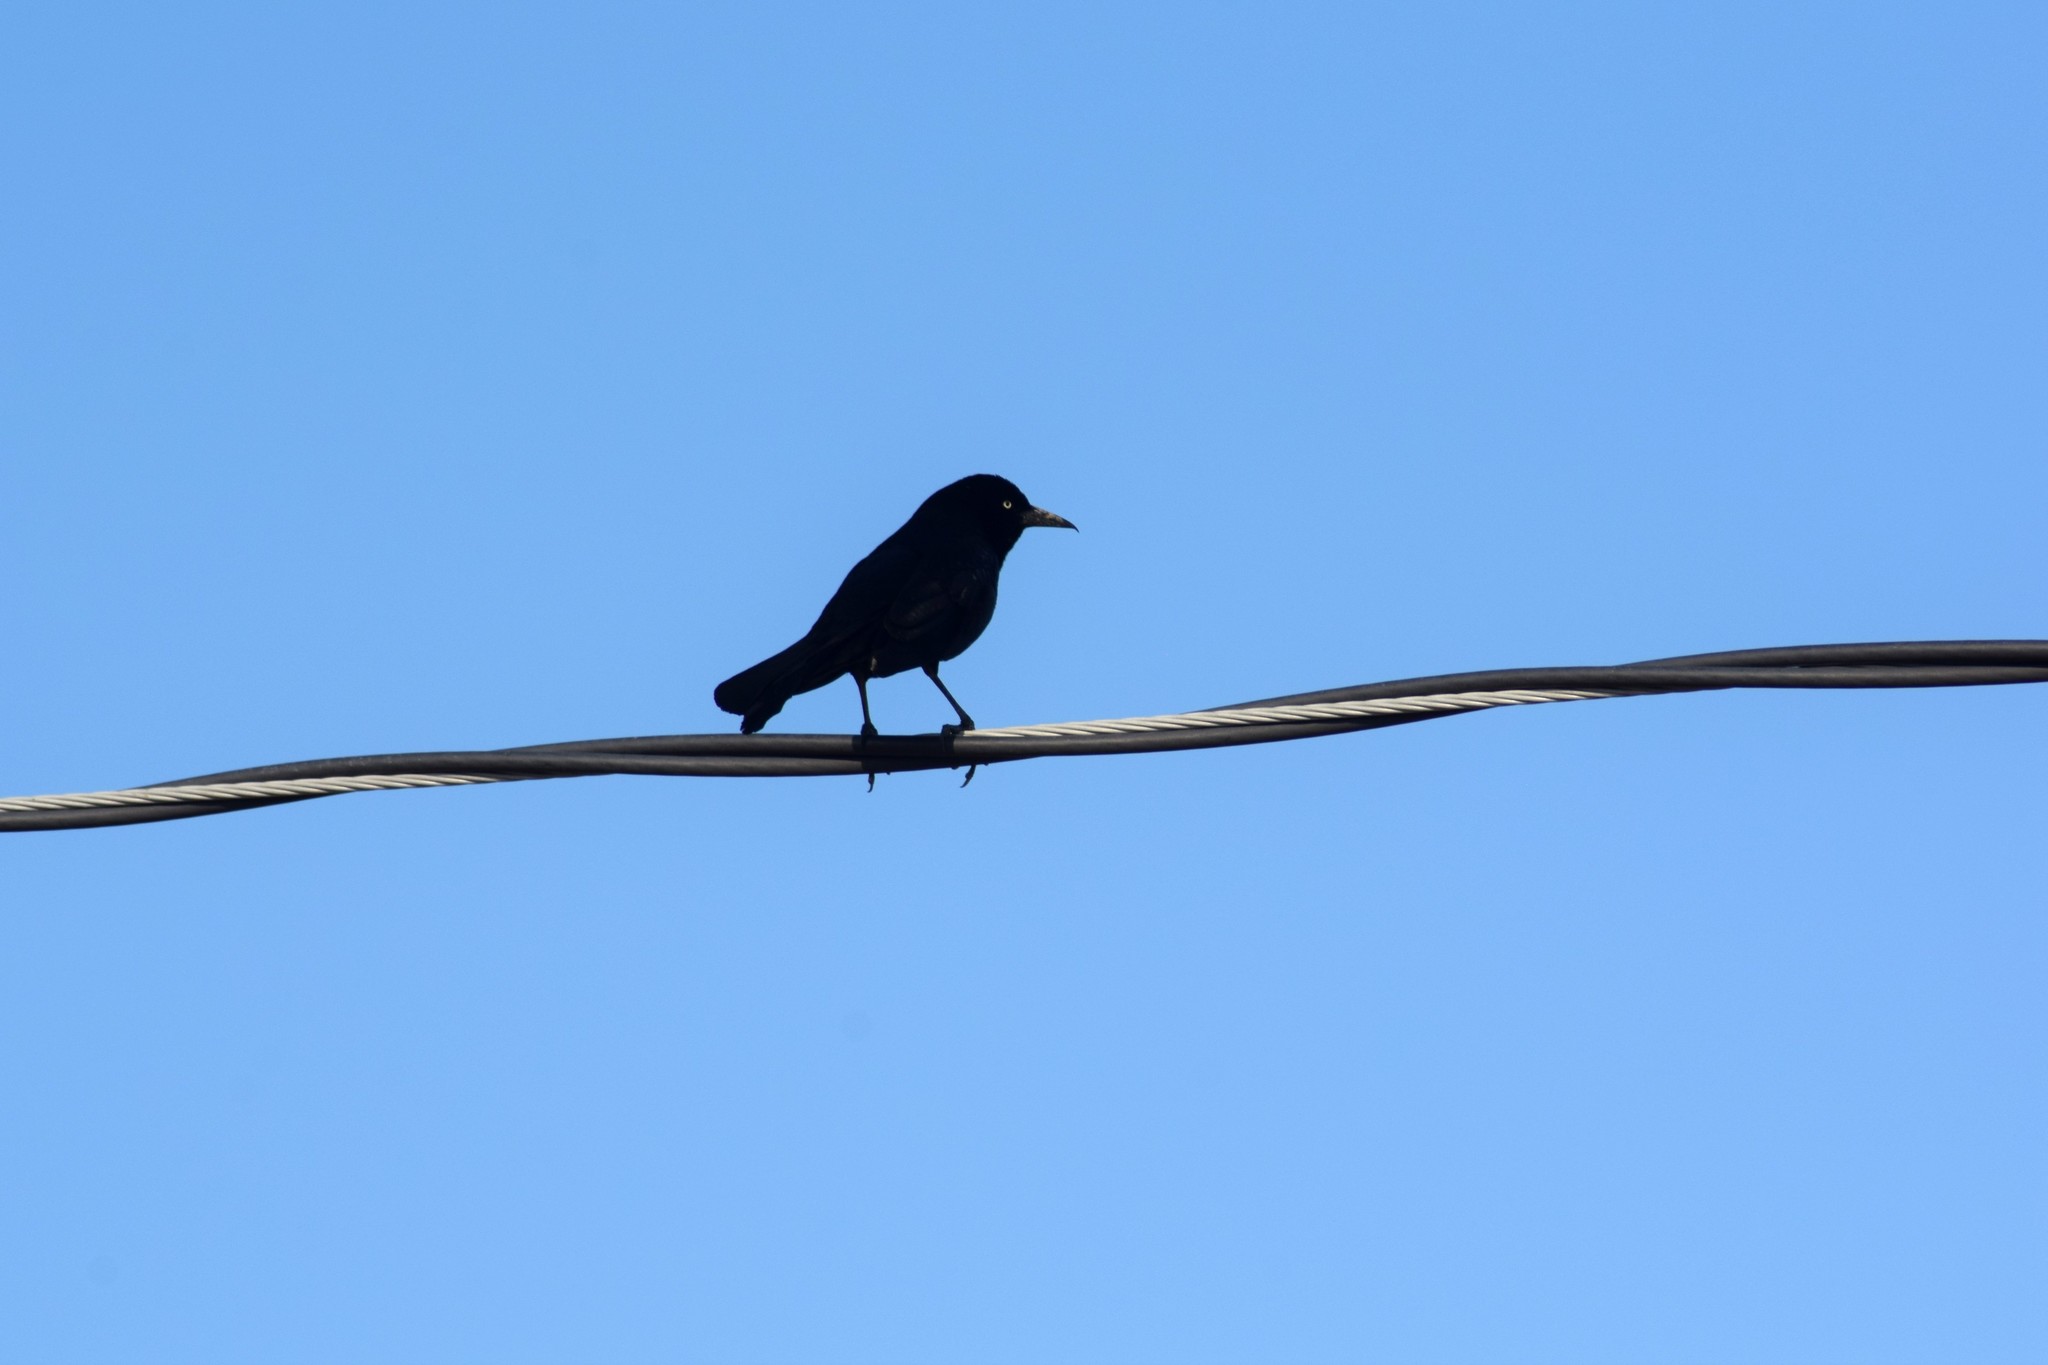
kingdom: Animalia
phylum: Chordata
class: Aves
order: Passeriformes
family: Icteridae
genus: Quiscalus
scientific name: Quiscalus major
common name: Boat-tailed grackle
